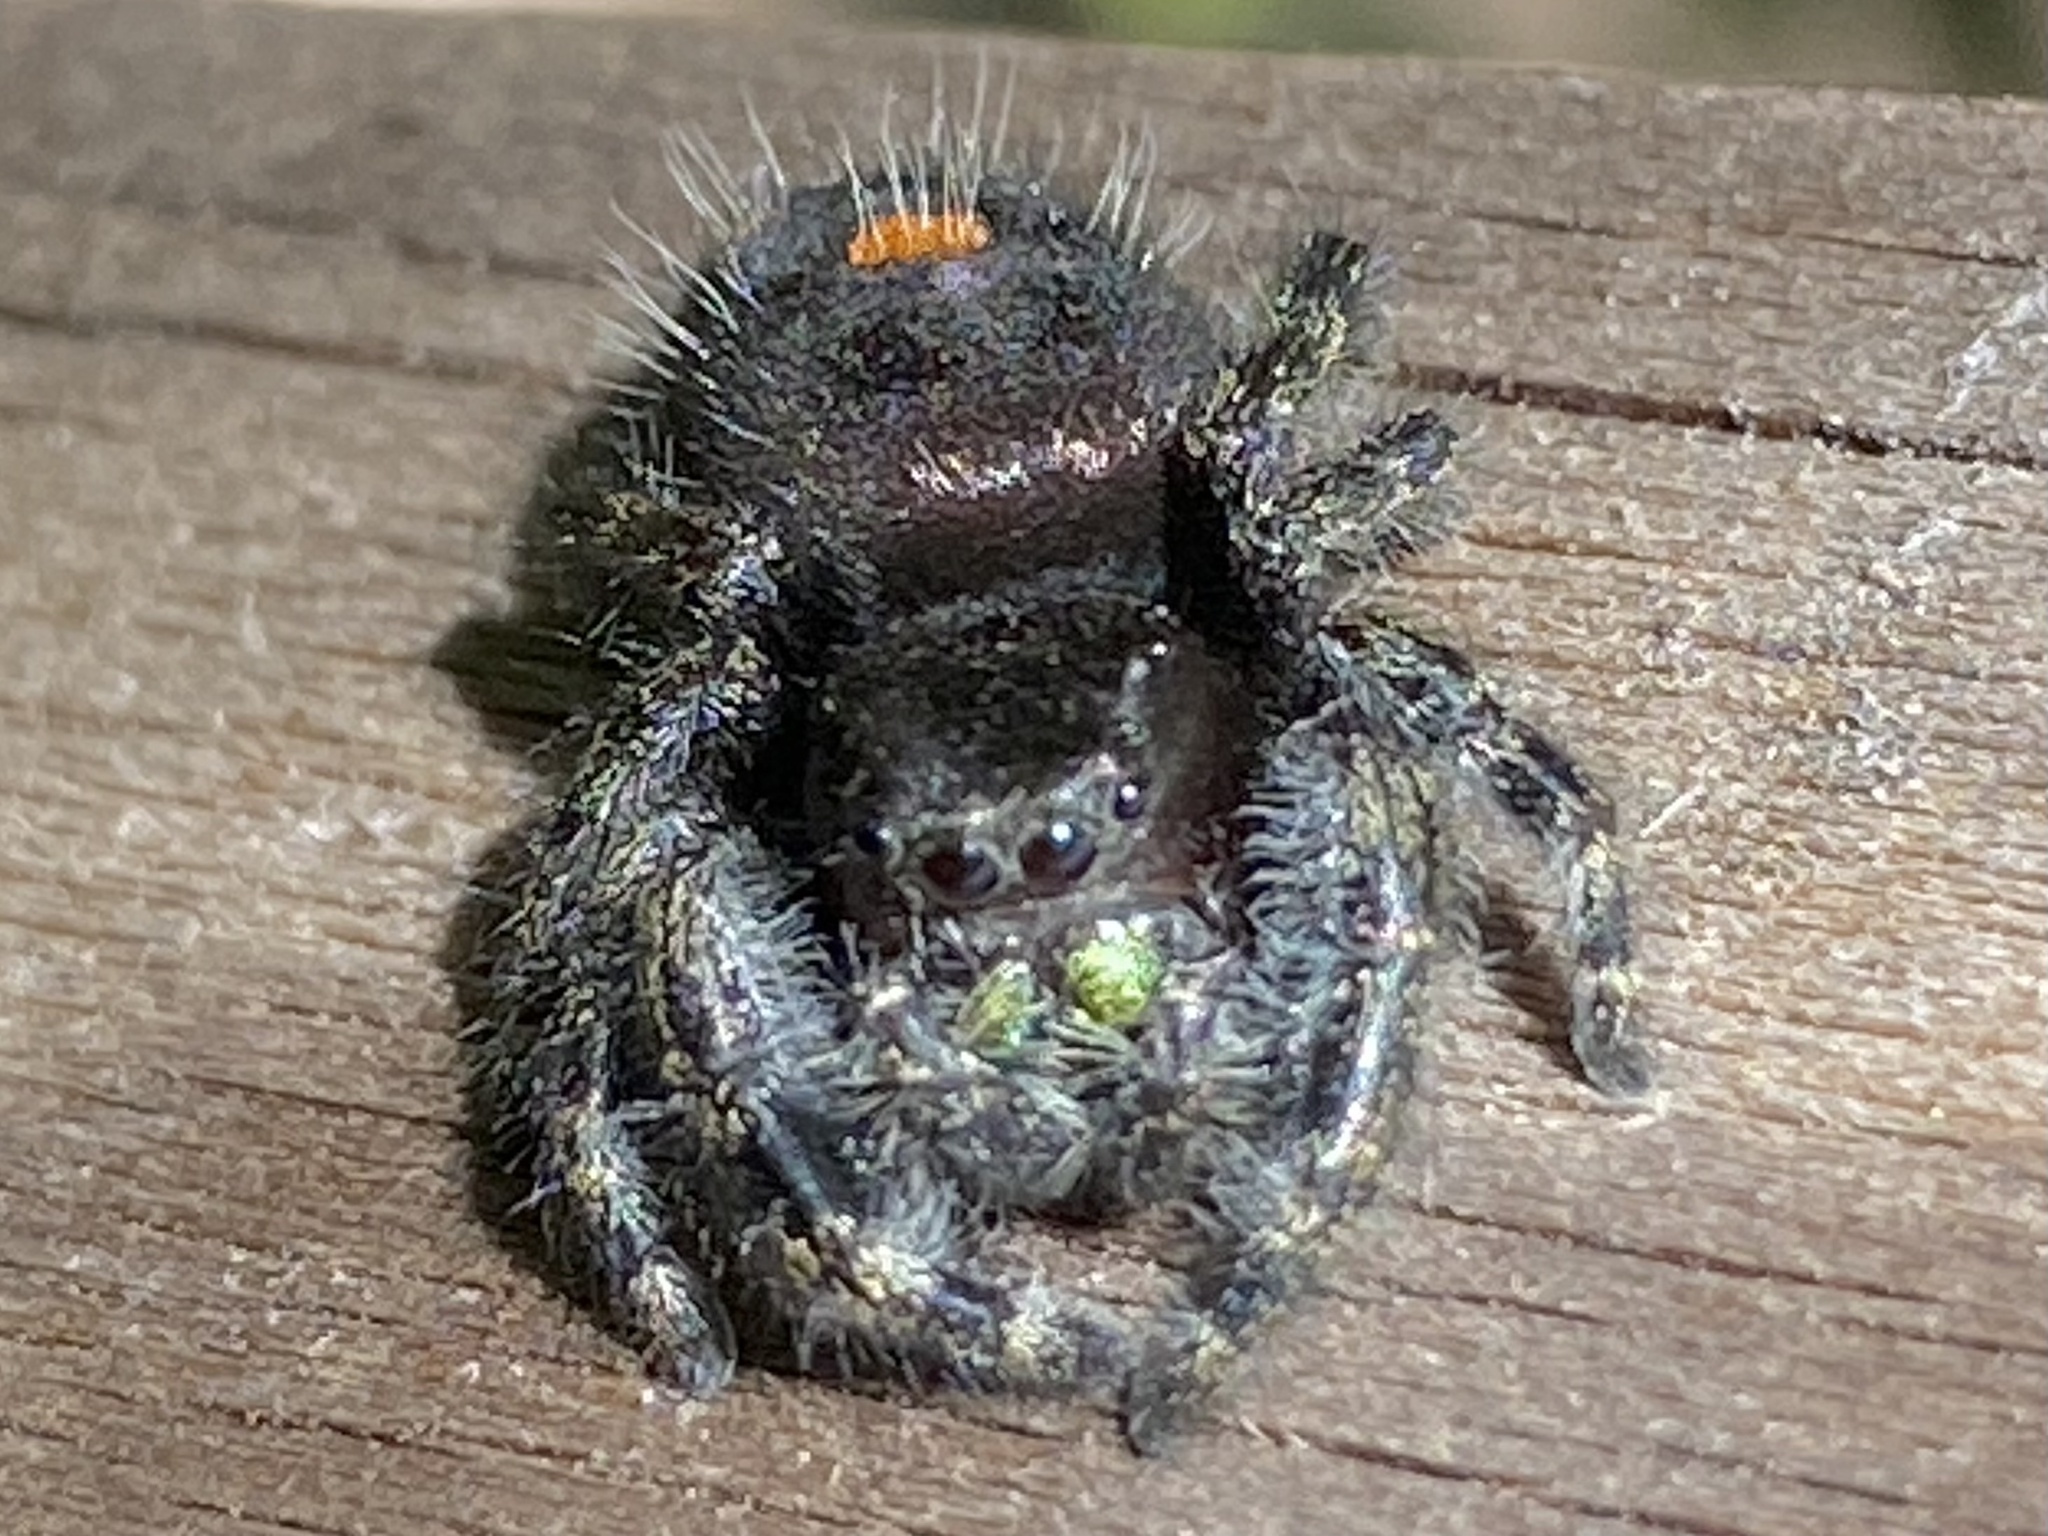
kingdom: Animalia
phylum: Arthropoda
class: Arachnida
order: Araneae
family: Salticidae
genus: Phidippus
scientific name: Phidippus audax
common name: Bold jumper
